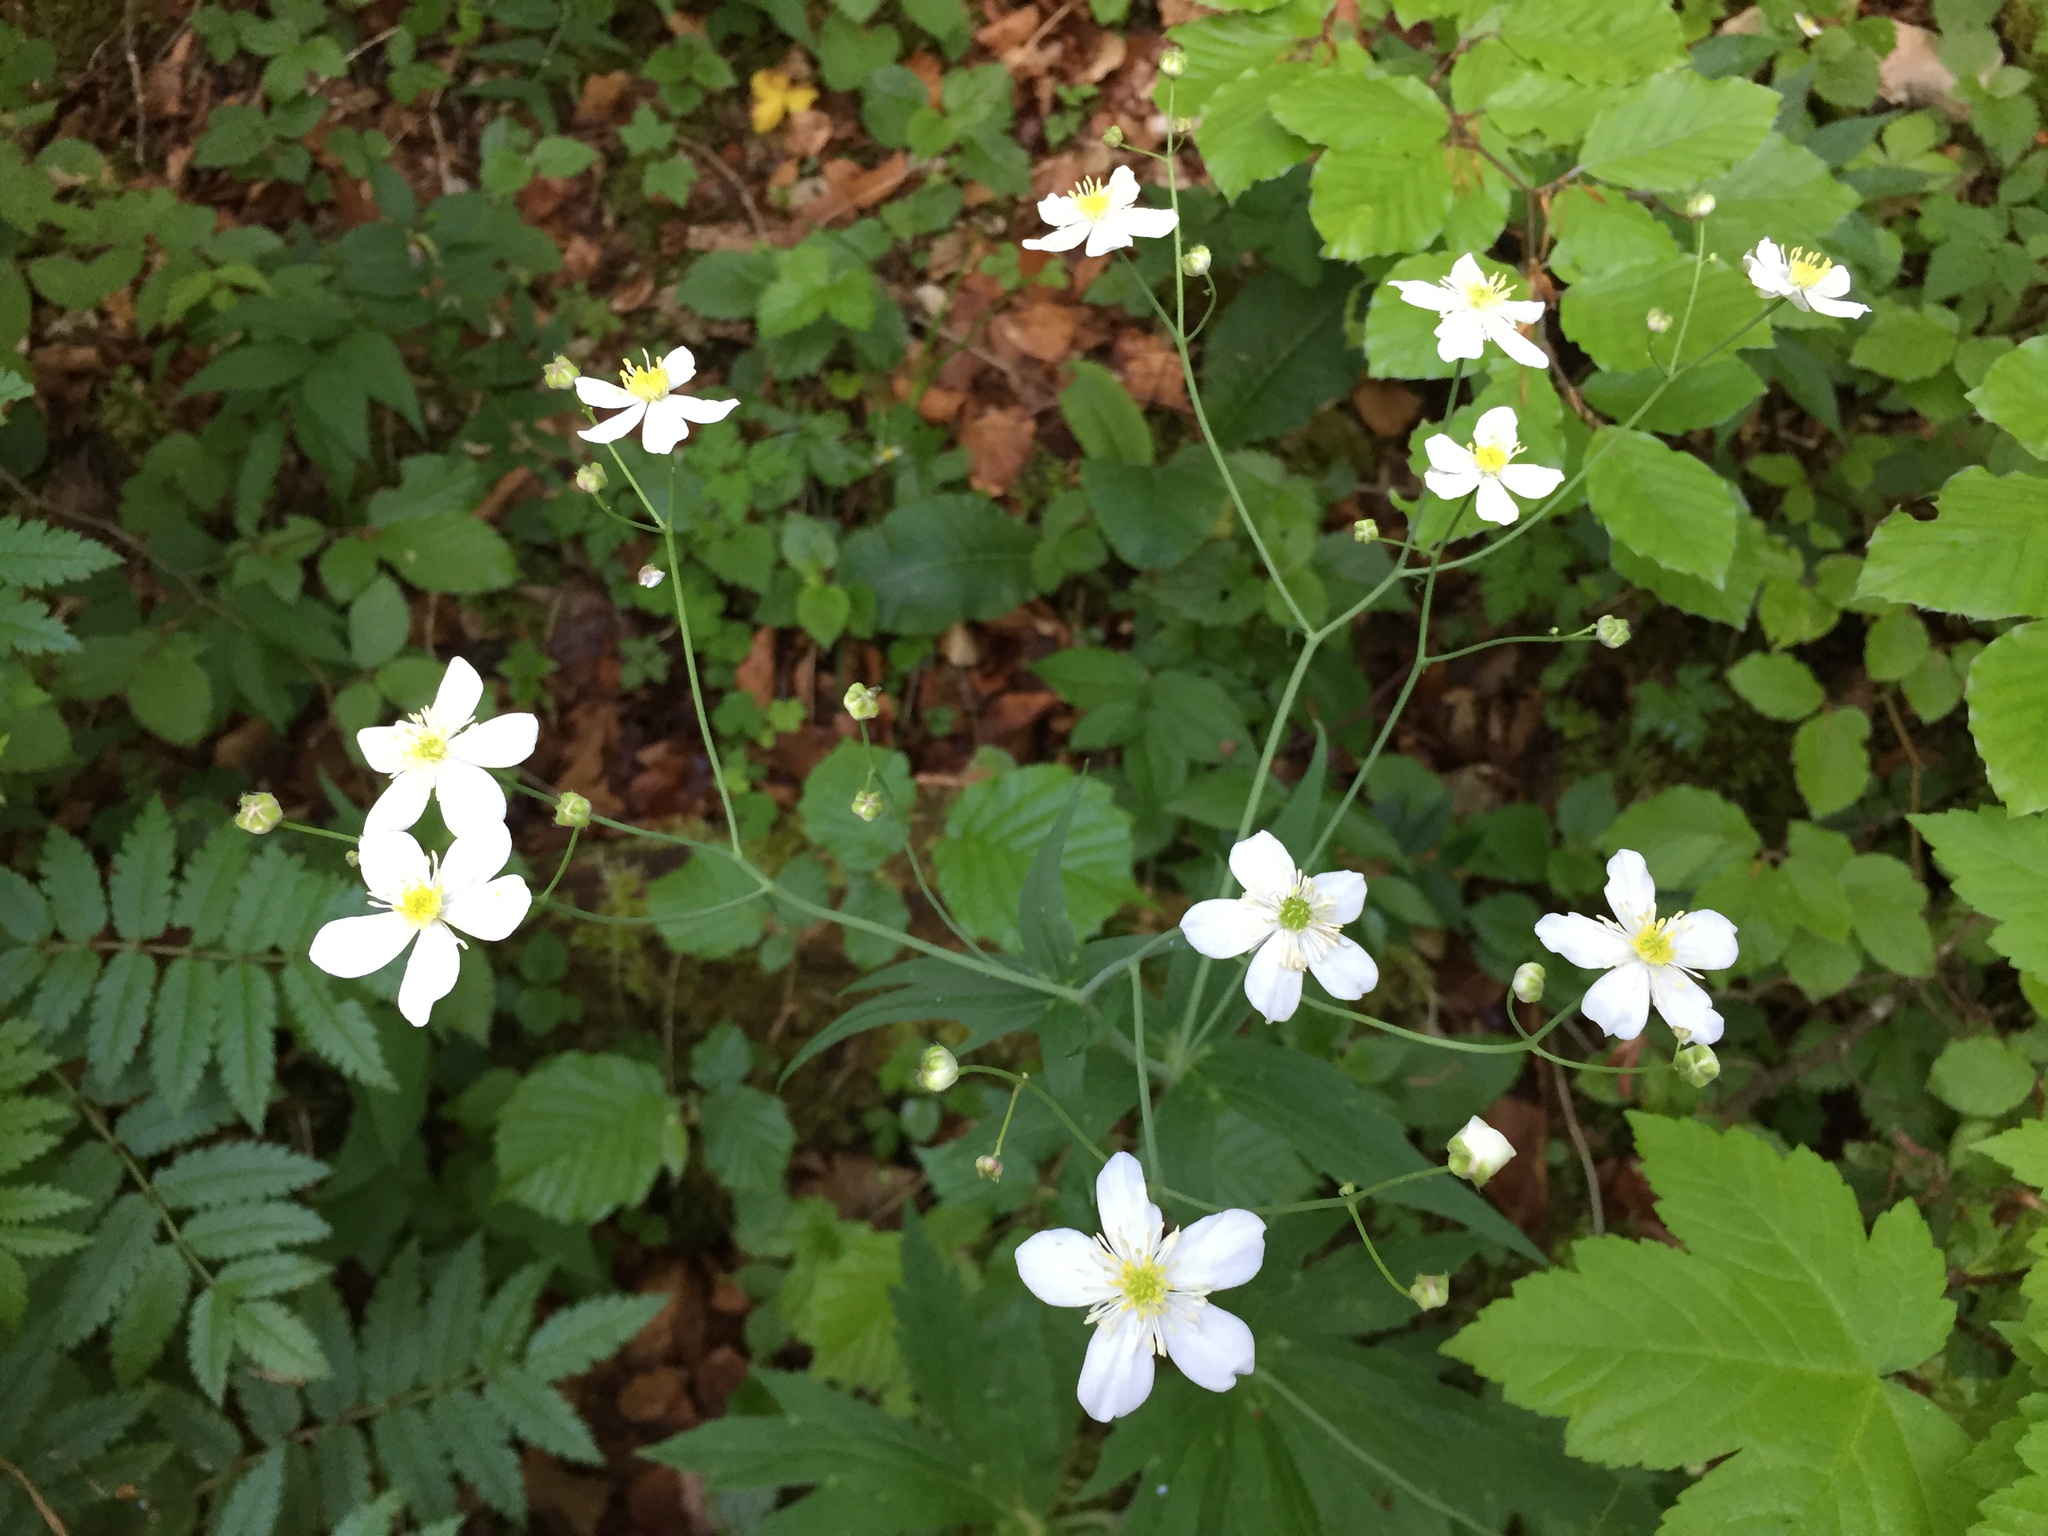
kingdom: Plantae
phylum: Tracheophyta
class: Magnoliopsida
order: Ranunculales
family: Ranunculaceae
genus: Ranunculus
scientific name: Ranunculus platanifolius
